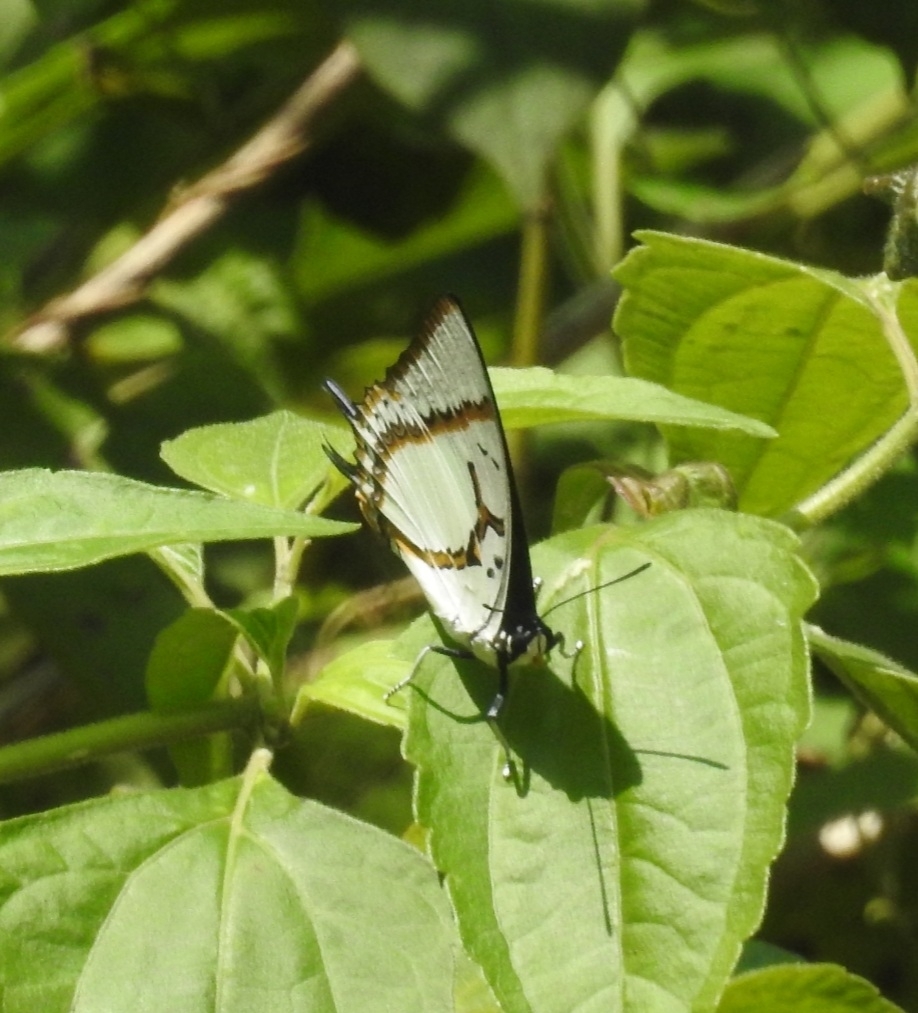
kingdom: Animalia
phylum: Arthropoda
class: Insecta
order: Lepidoptera
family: Nymphalidae
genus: Polyura
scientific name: Polyura eudamippus
